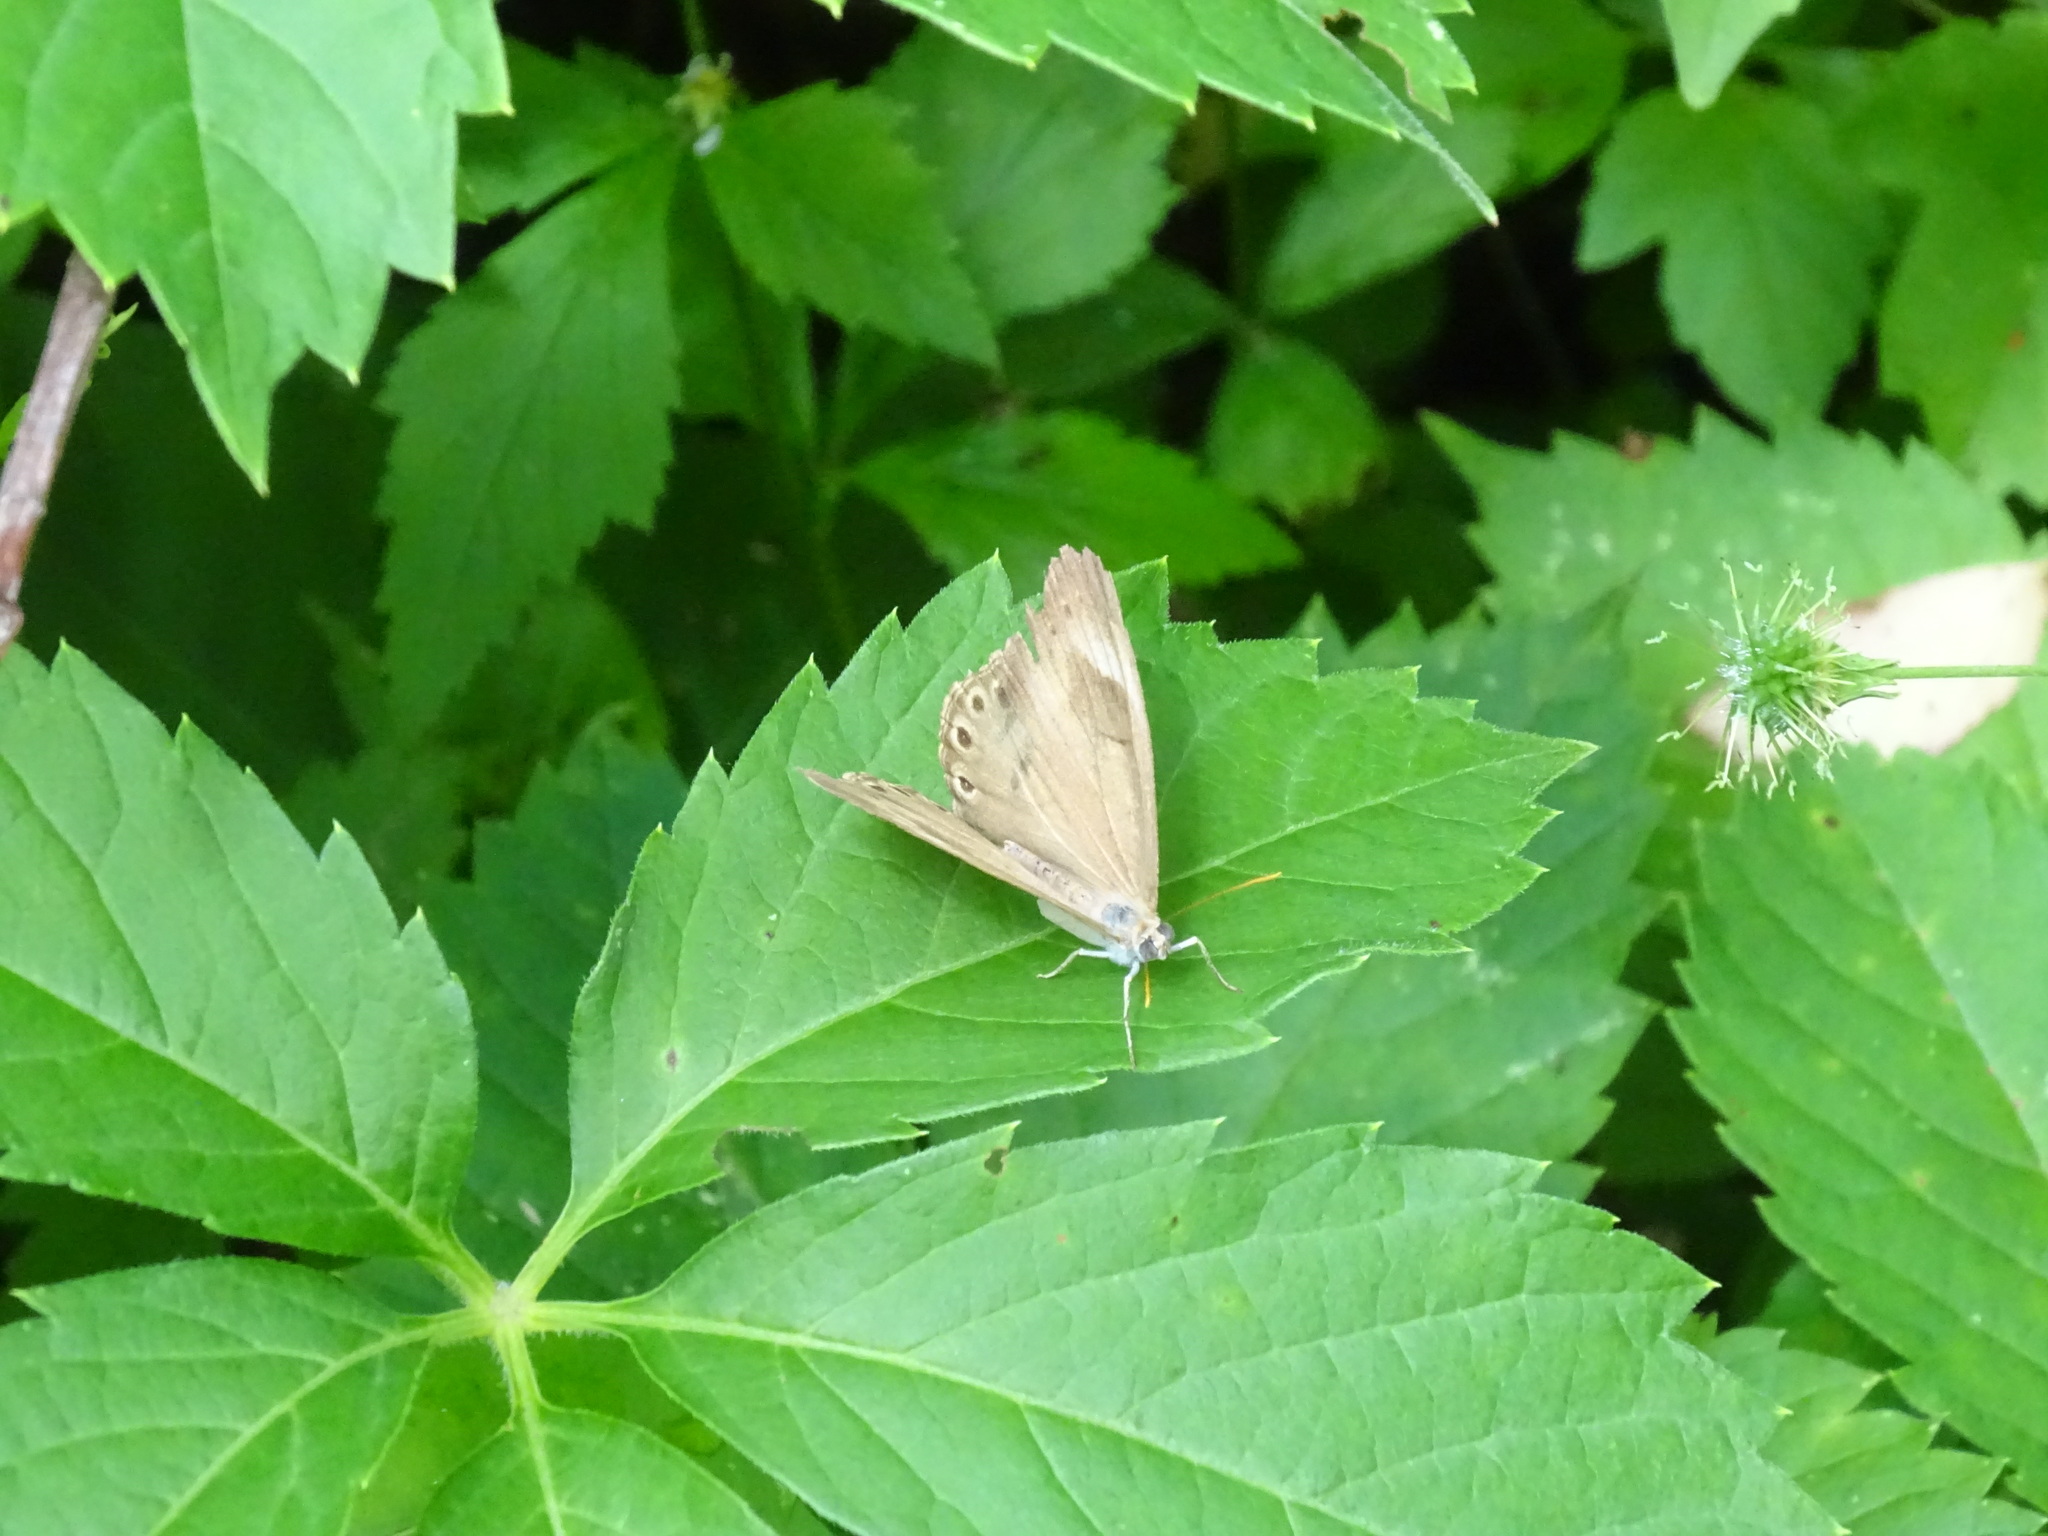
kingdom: Animalia
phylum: Arthropoda
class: Insecta
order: Lepidoptera
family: Nymphalidae
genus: Lethe
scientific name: Lethe eurydice
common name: Eyed brown
